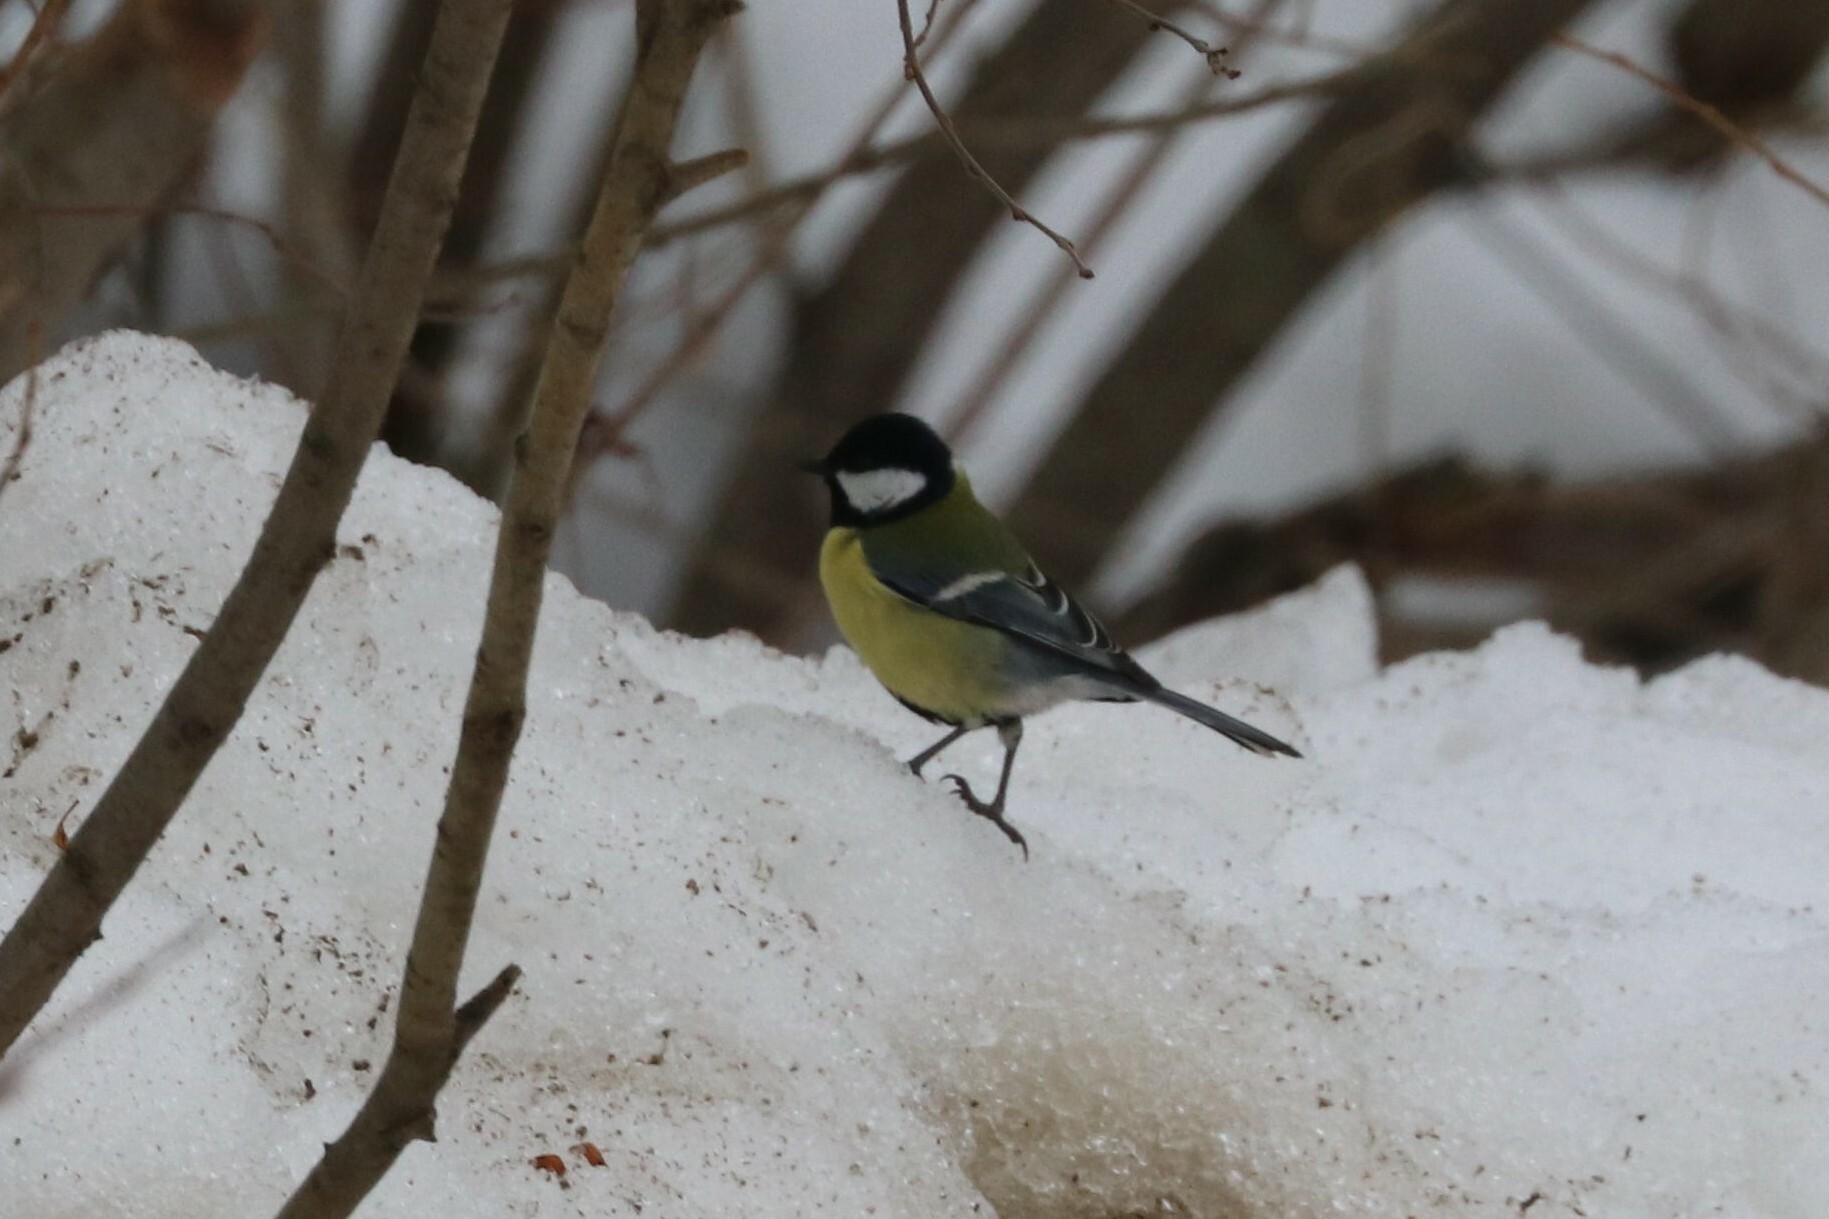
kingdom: Animalia
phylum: Chordata
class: Aves
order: Passeriformes
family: Paridae
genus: Parus
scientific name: Parus major
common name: Great tit
